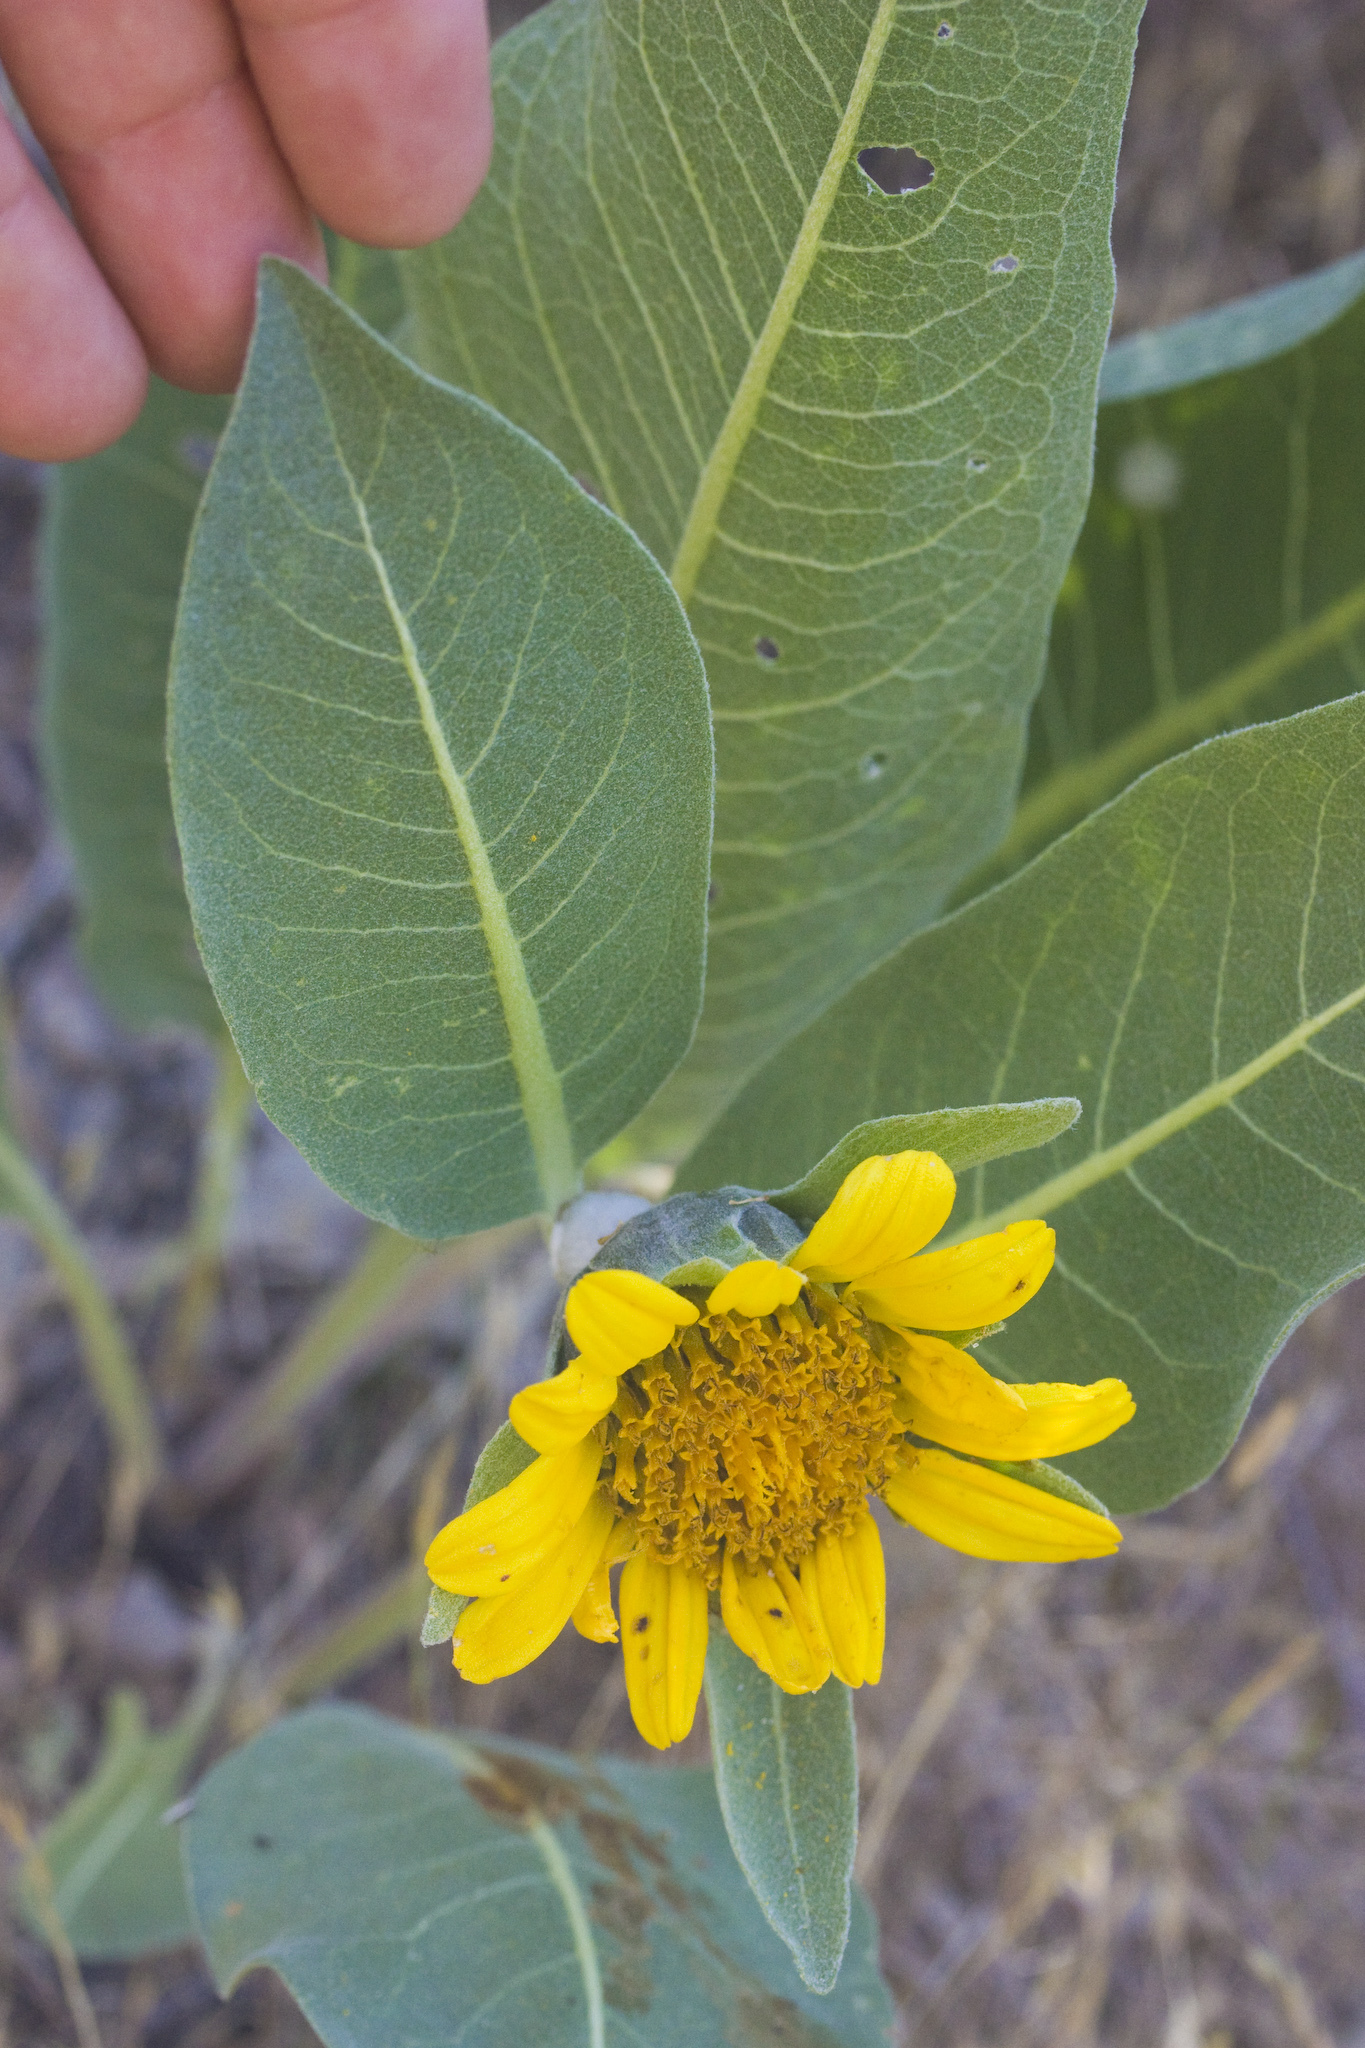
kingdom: Plantae
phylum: Tracheophyta
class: Magnoliopsida
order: Asterales
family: Asteraceae
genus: Wyethia
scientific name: Wyethia helenioides
